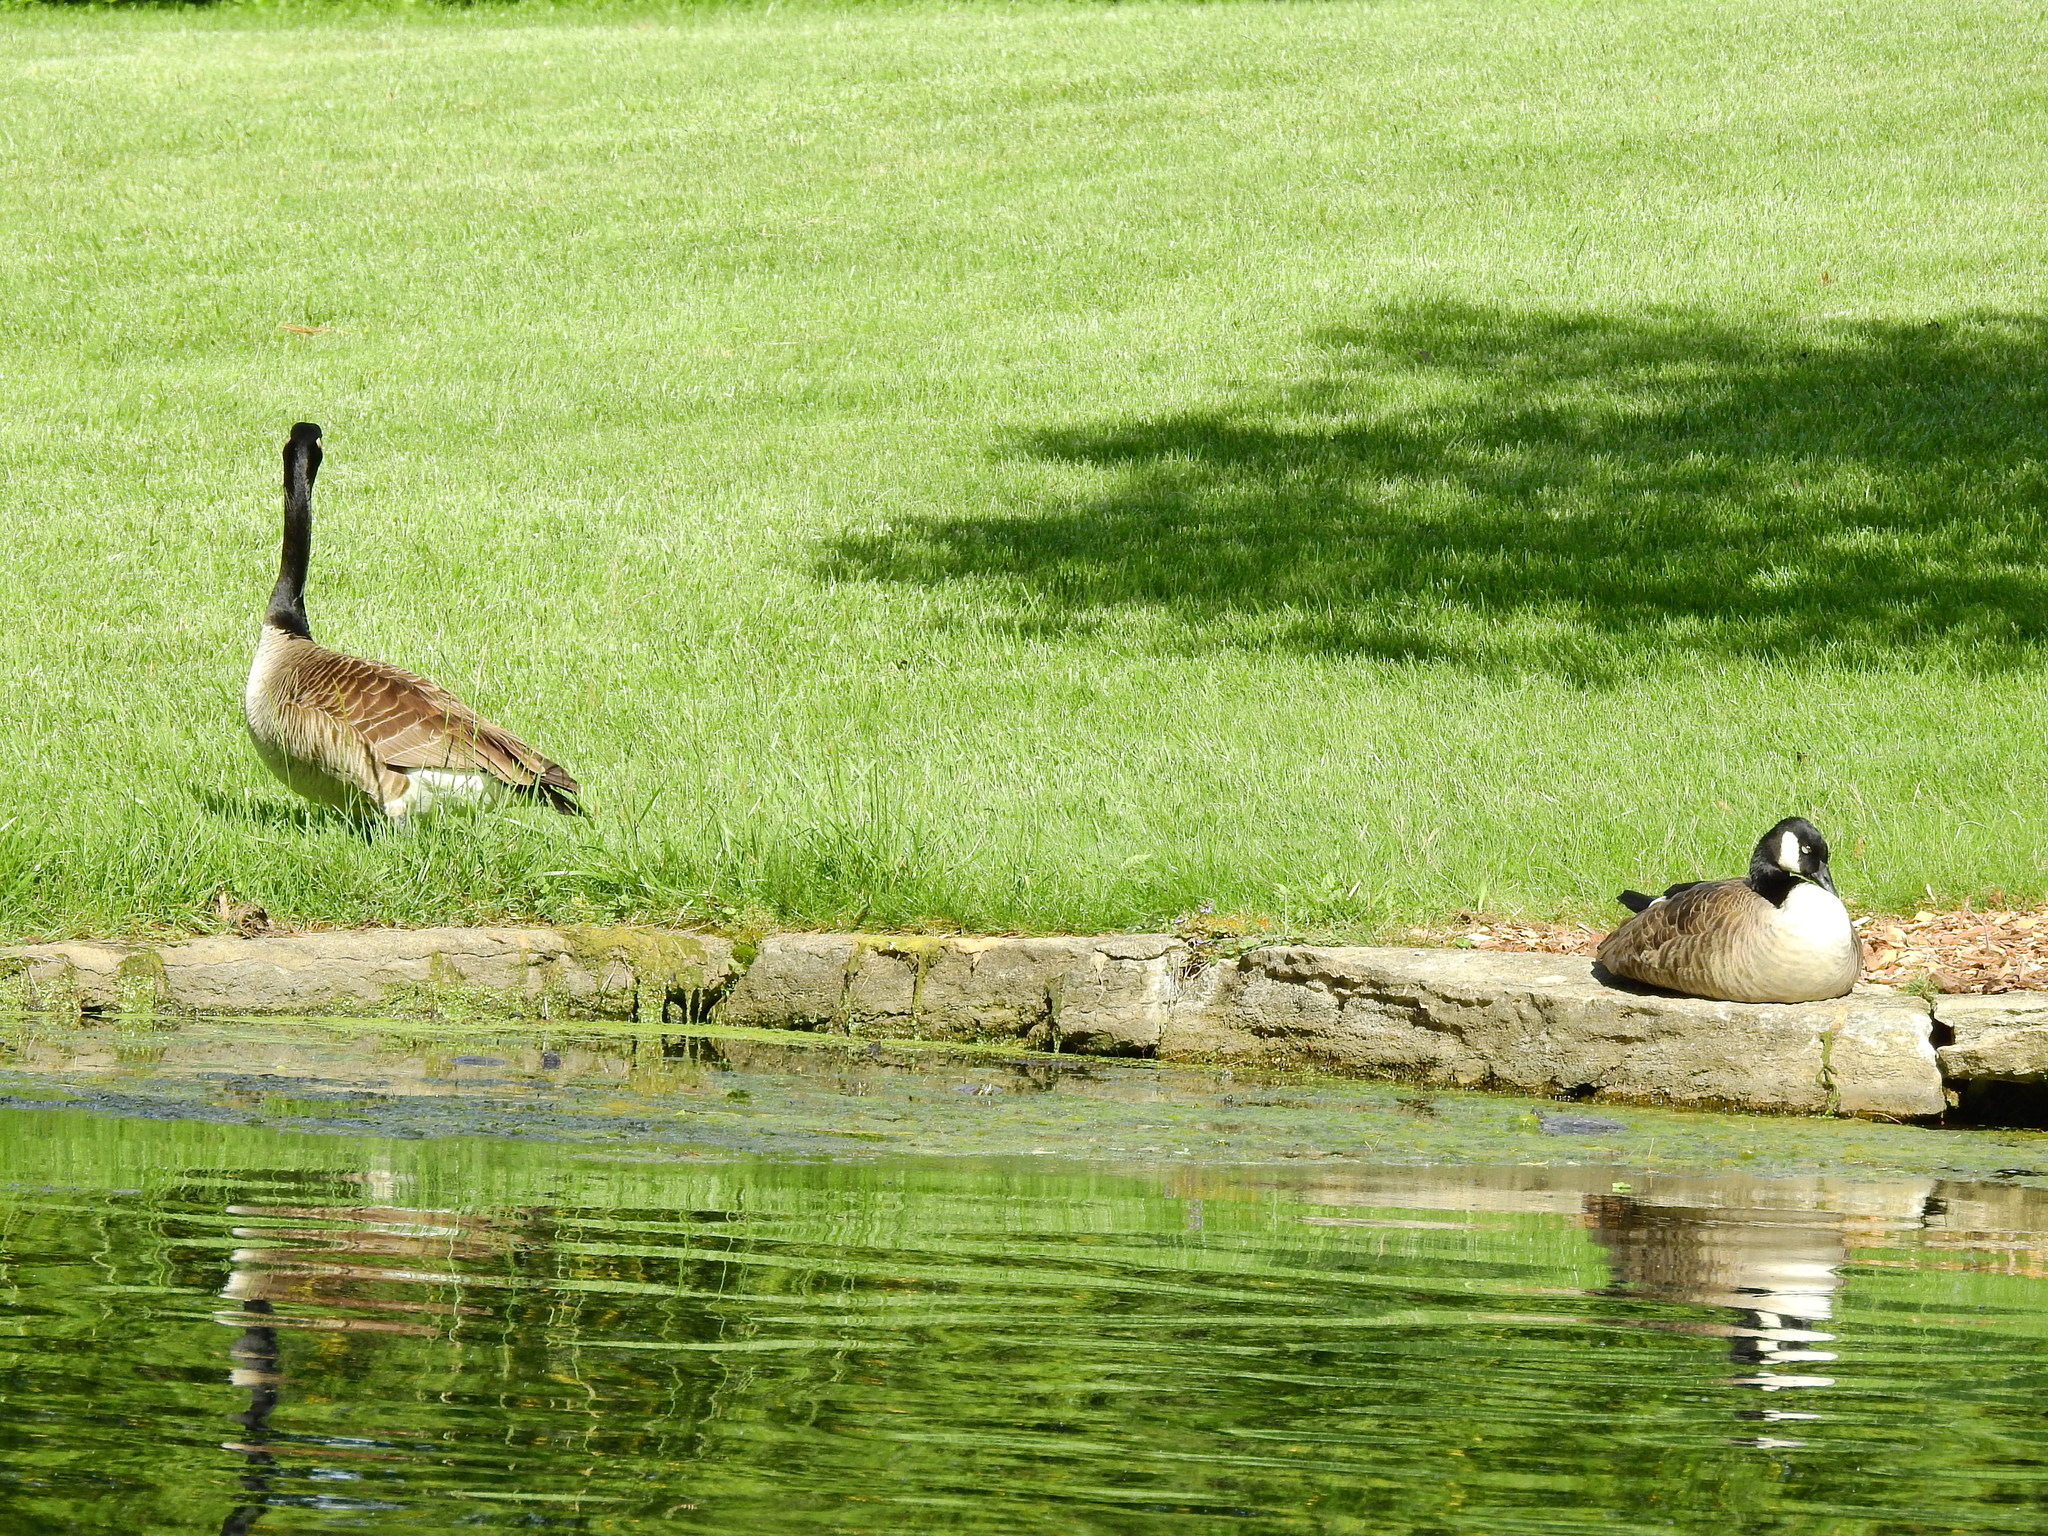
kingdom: Animalia
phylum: Chordata
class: Aves
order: Anseriformes
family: Anatidae
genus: Branta
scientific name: Branta canadensis
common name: Canada goose
